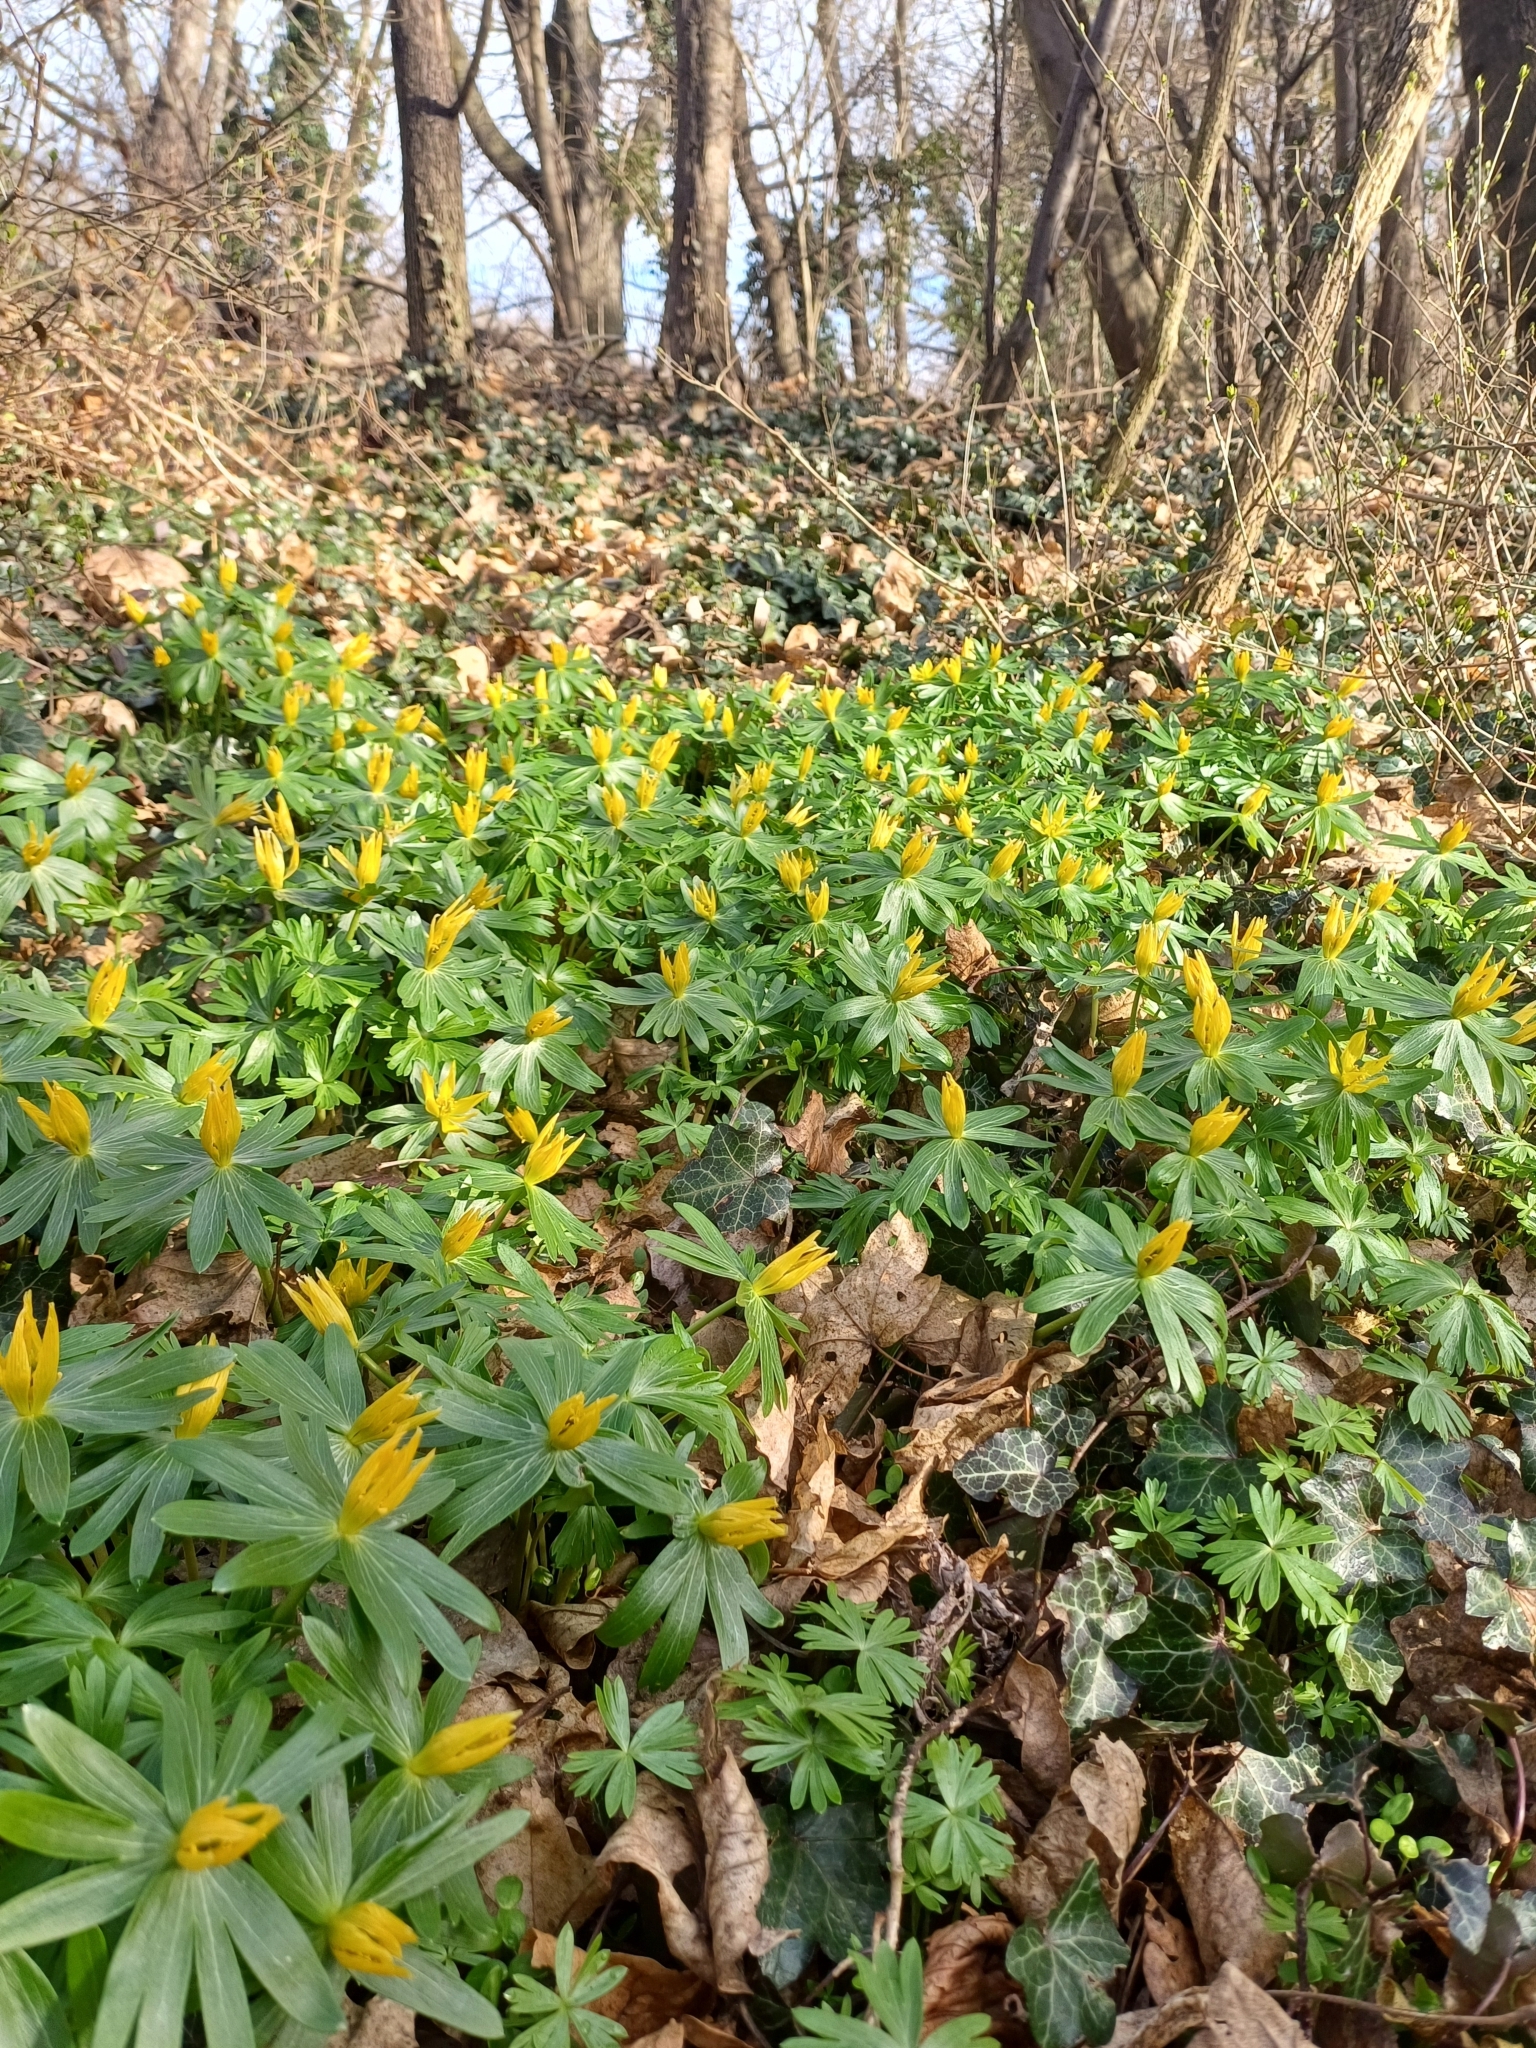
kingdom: Plantae
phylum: Tracheophyta
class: Magnoliopsida
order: Ranunculales
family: Ranunculaceae
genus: Eranthis
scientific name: Eranthis hyemalis
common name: Winter aconite
